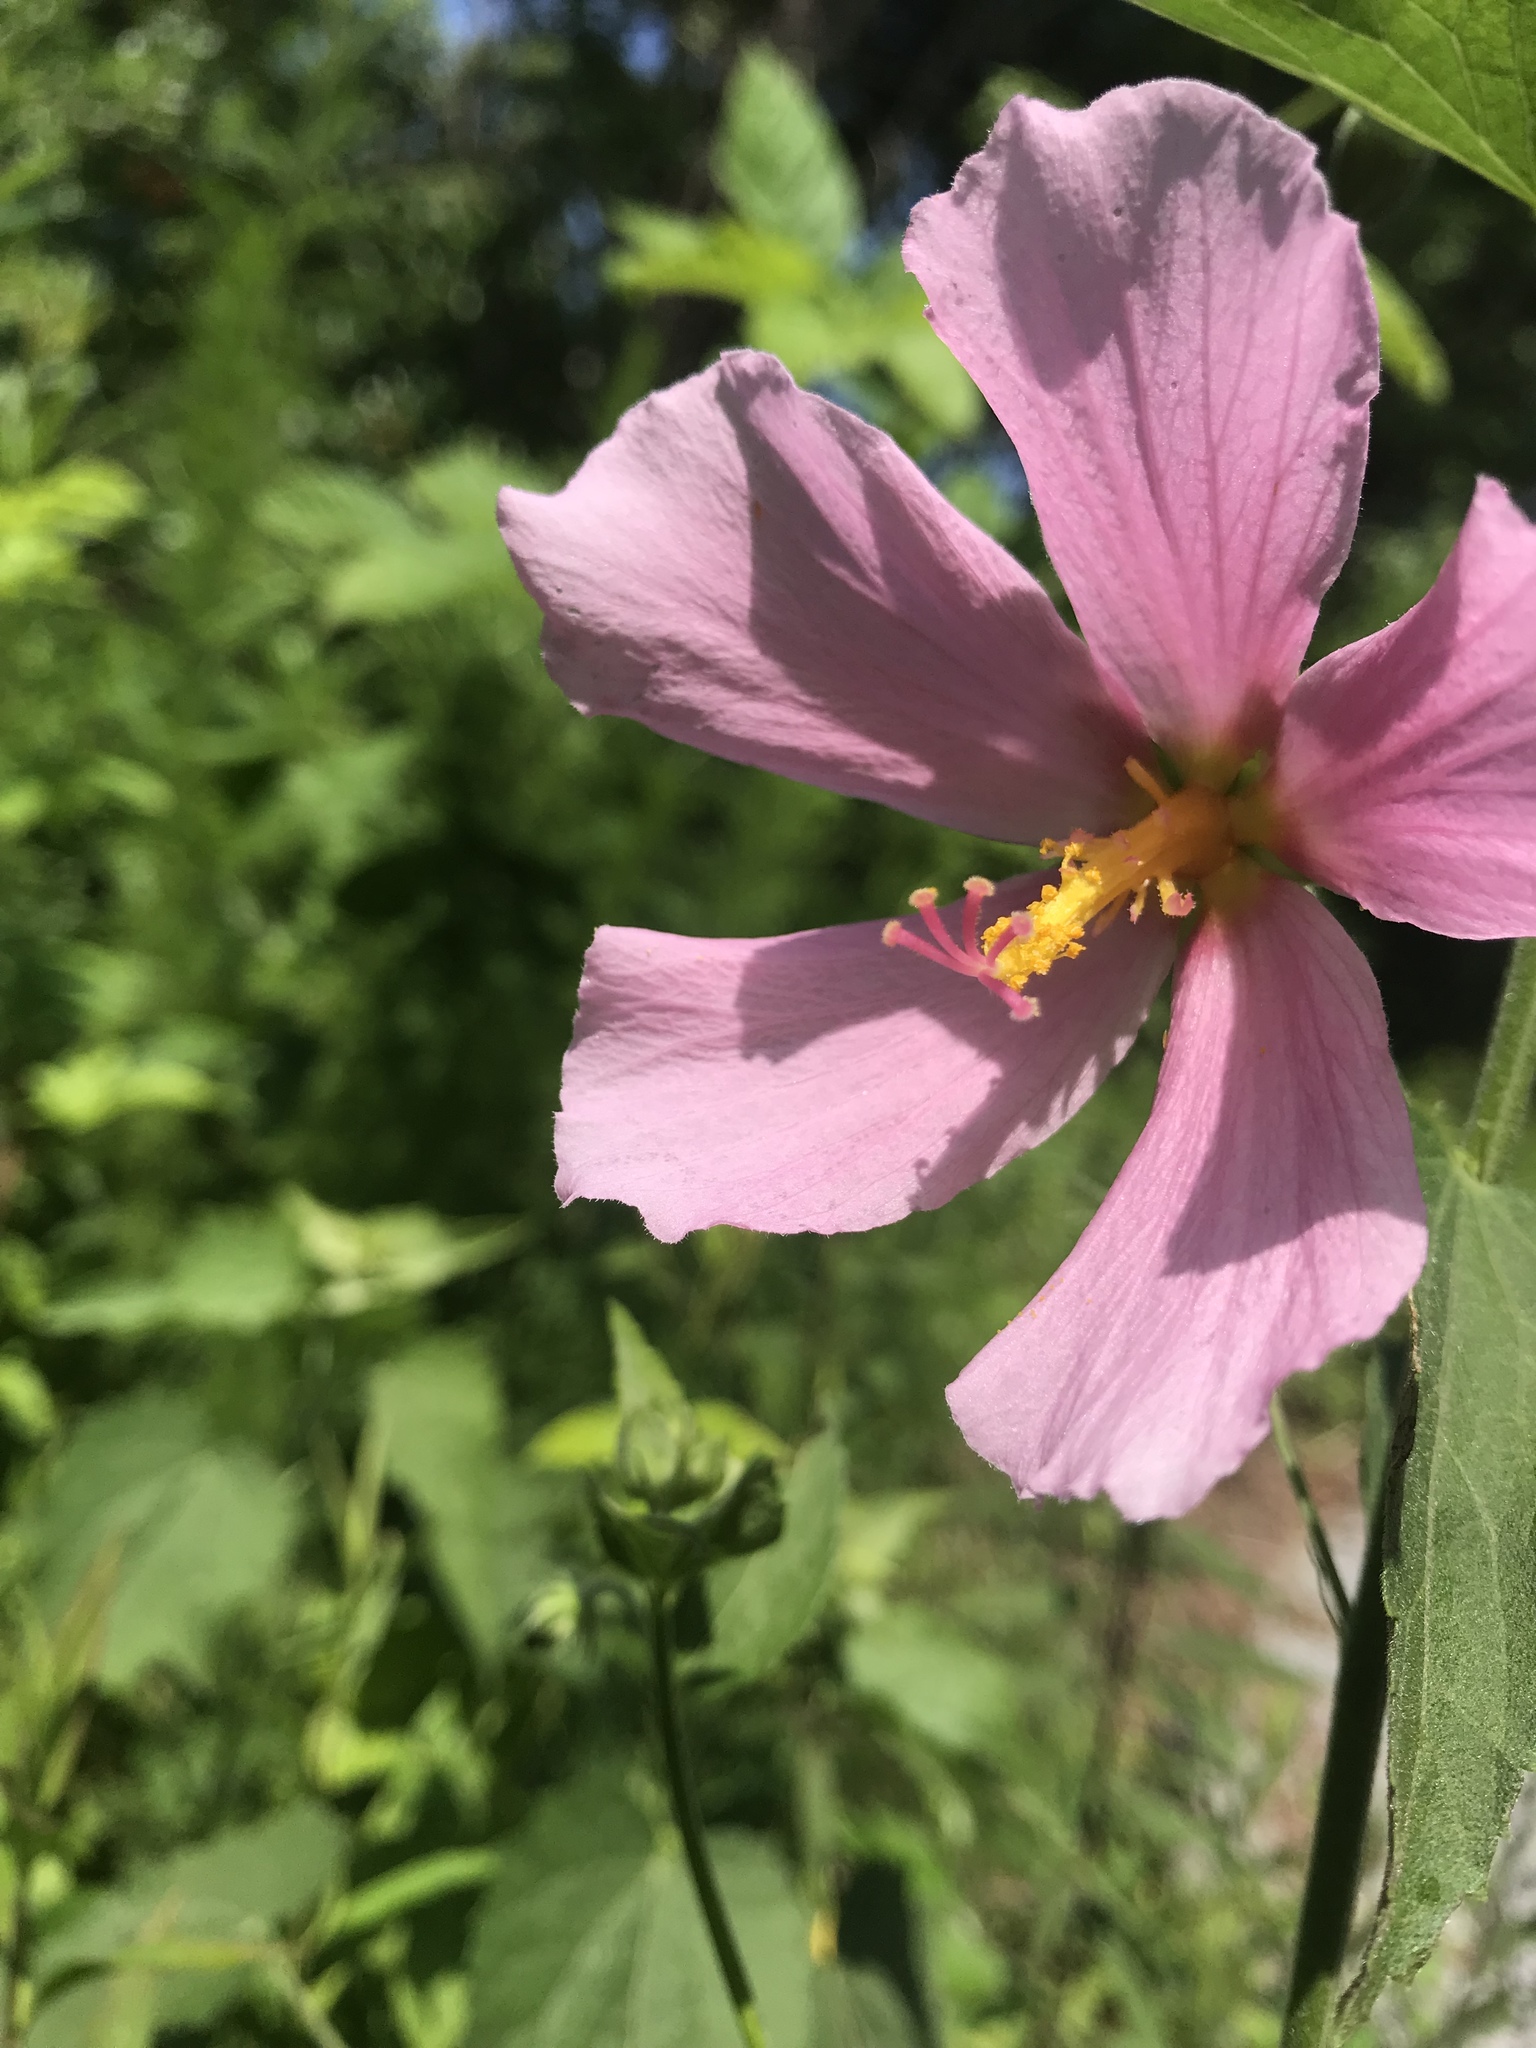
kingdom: Plantae
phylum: Tracheophyta
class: Magnoliopsida
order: Malvales
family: Malvaceae
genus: Kosteletzkya
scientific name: Kosteletzkya pentacarpos
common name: Virginia saltmarsh mallow
